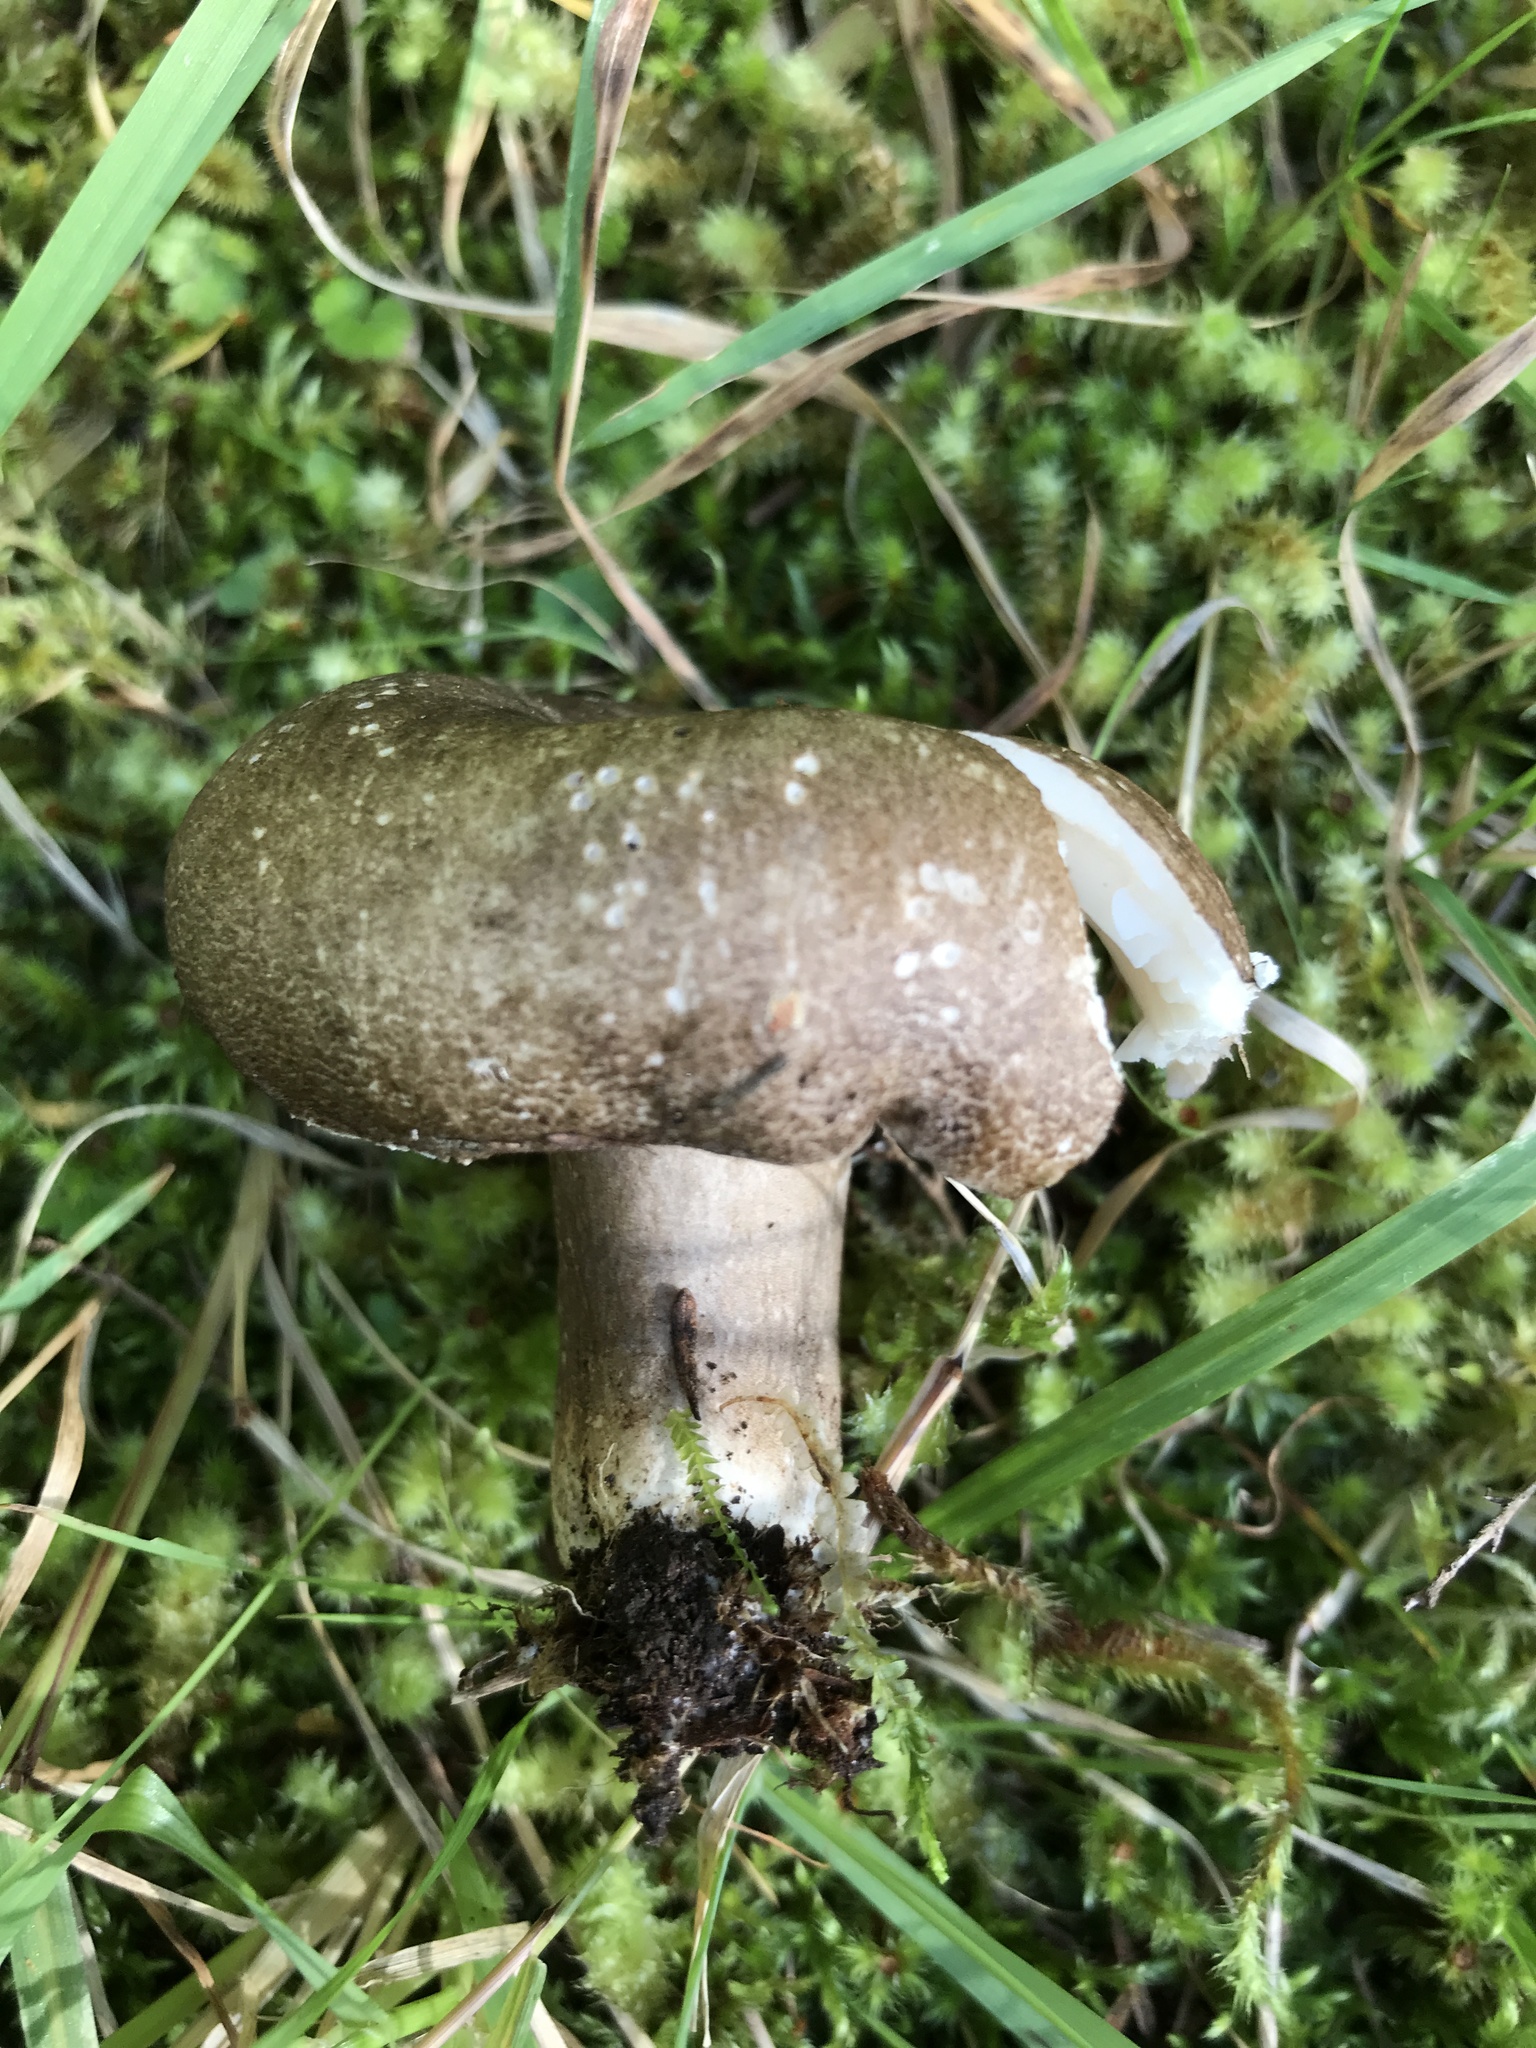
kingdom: Fungi
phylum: Basidiomycota
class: Agaricomycetes
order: Russulales
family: Russulaceae
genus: Russula
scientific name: Russula griseobrunnea
